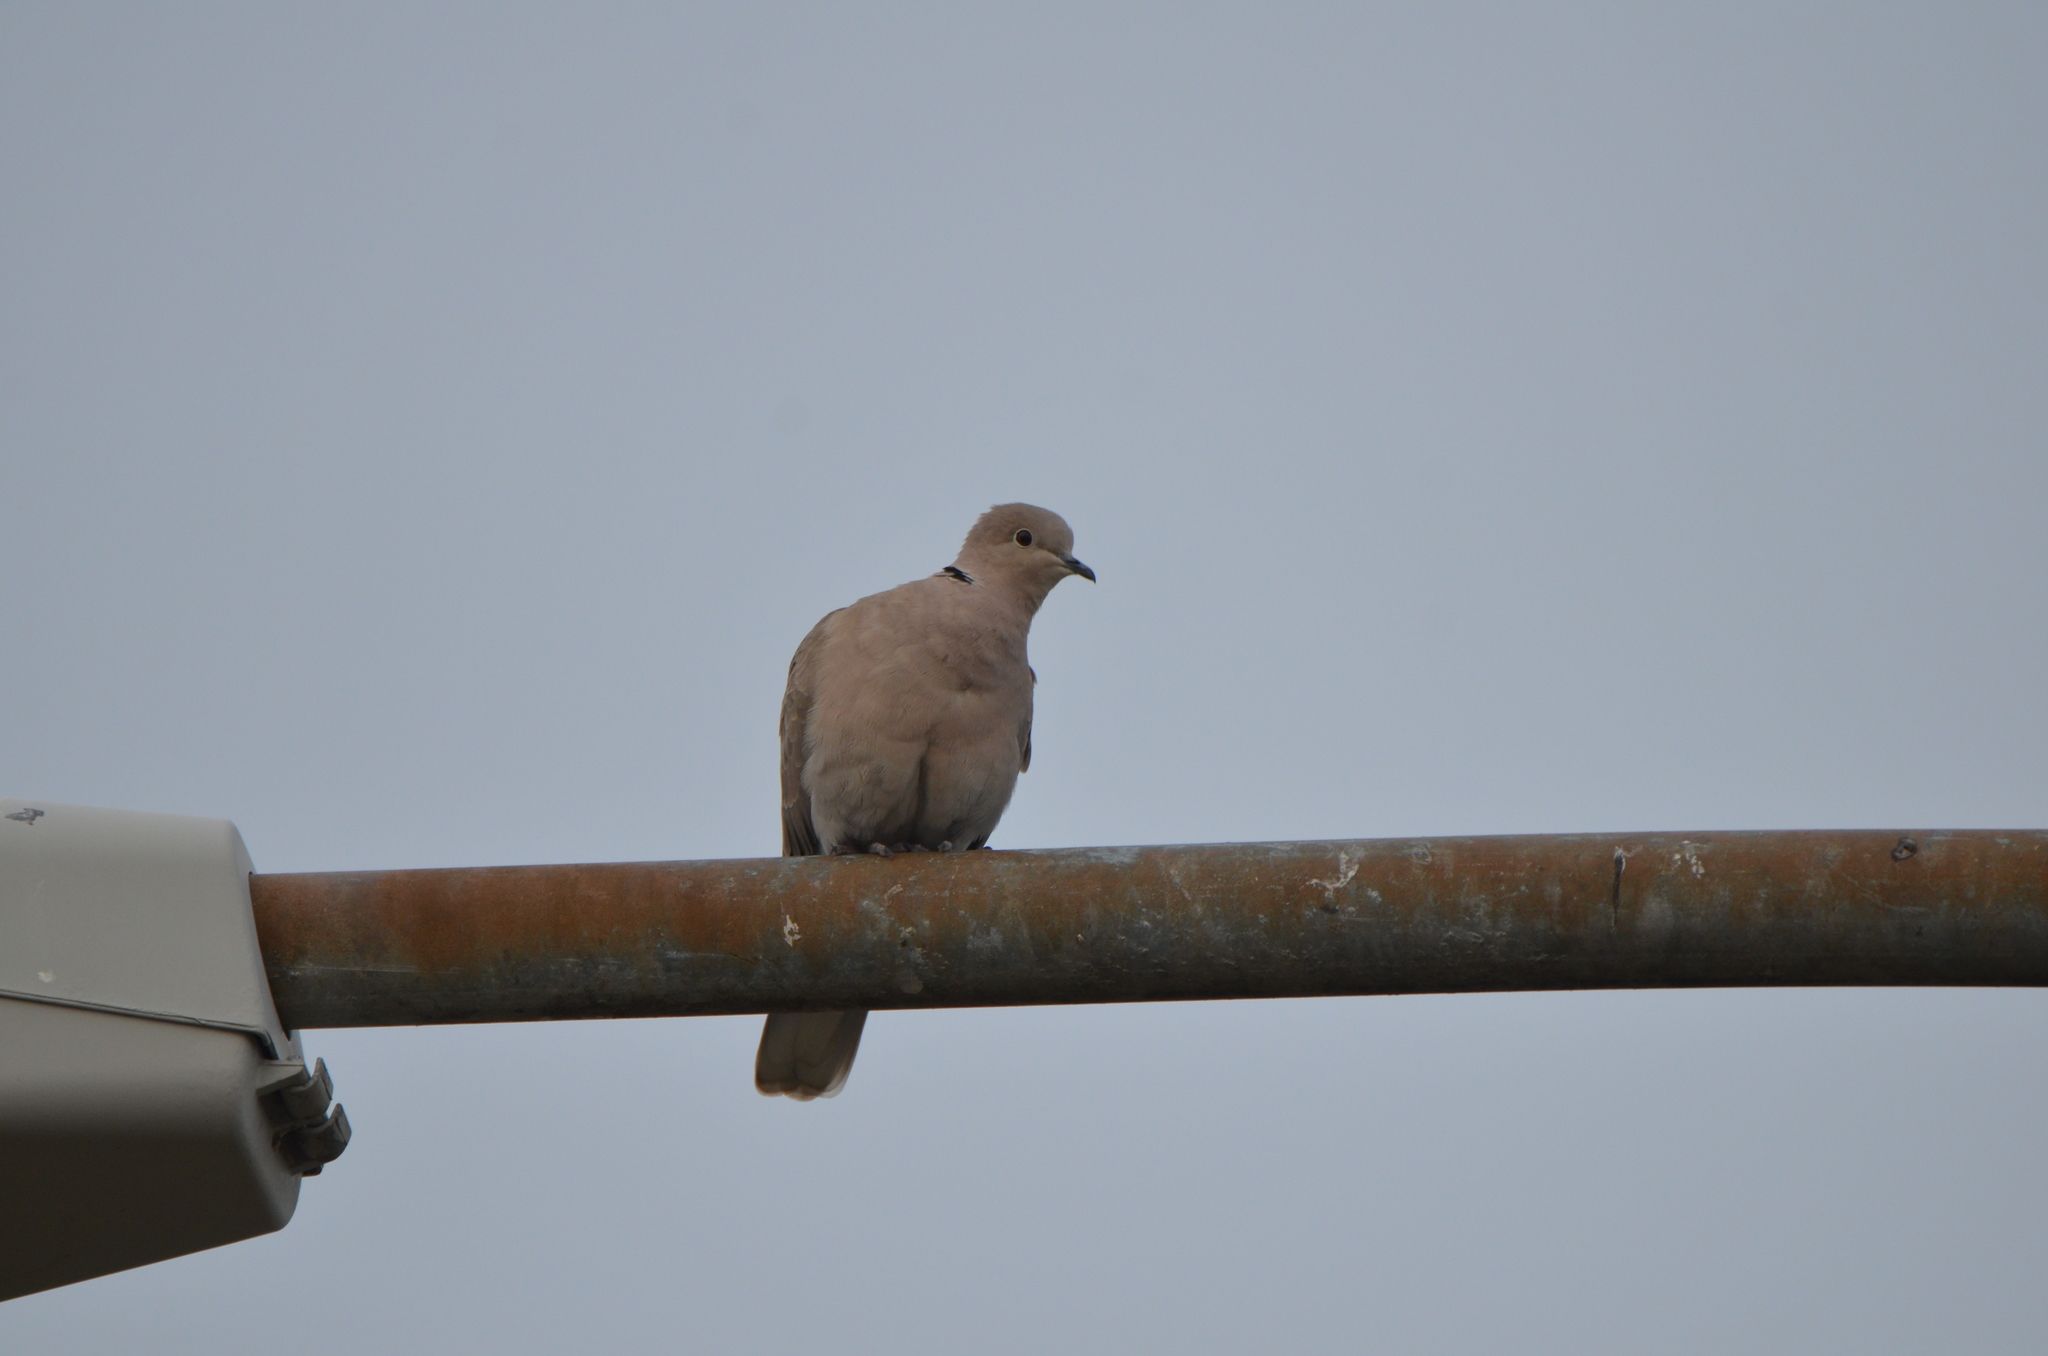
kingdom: Animalia
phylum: Chordata
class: Aves
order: Columbiformes
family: Columbidae
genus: Streptopelia
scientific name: Streptopelia decaocto
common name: Eurasian collared dove
